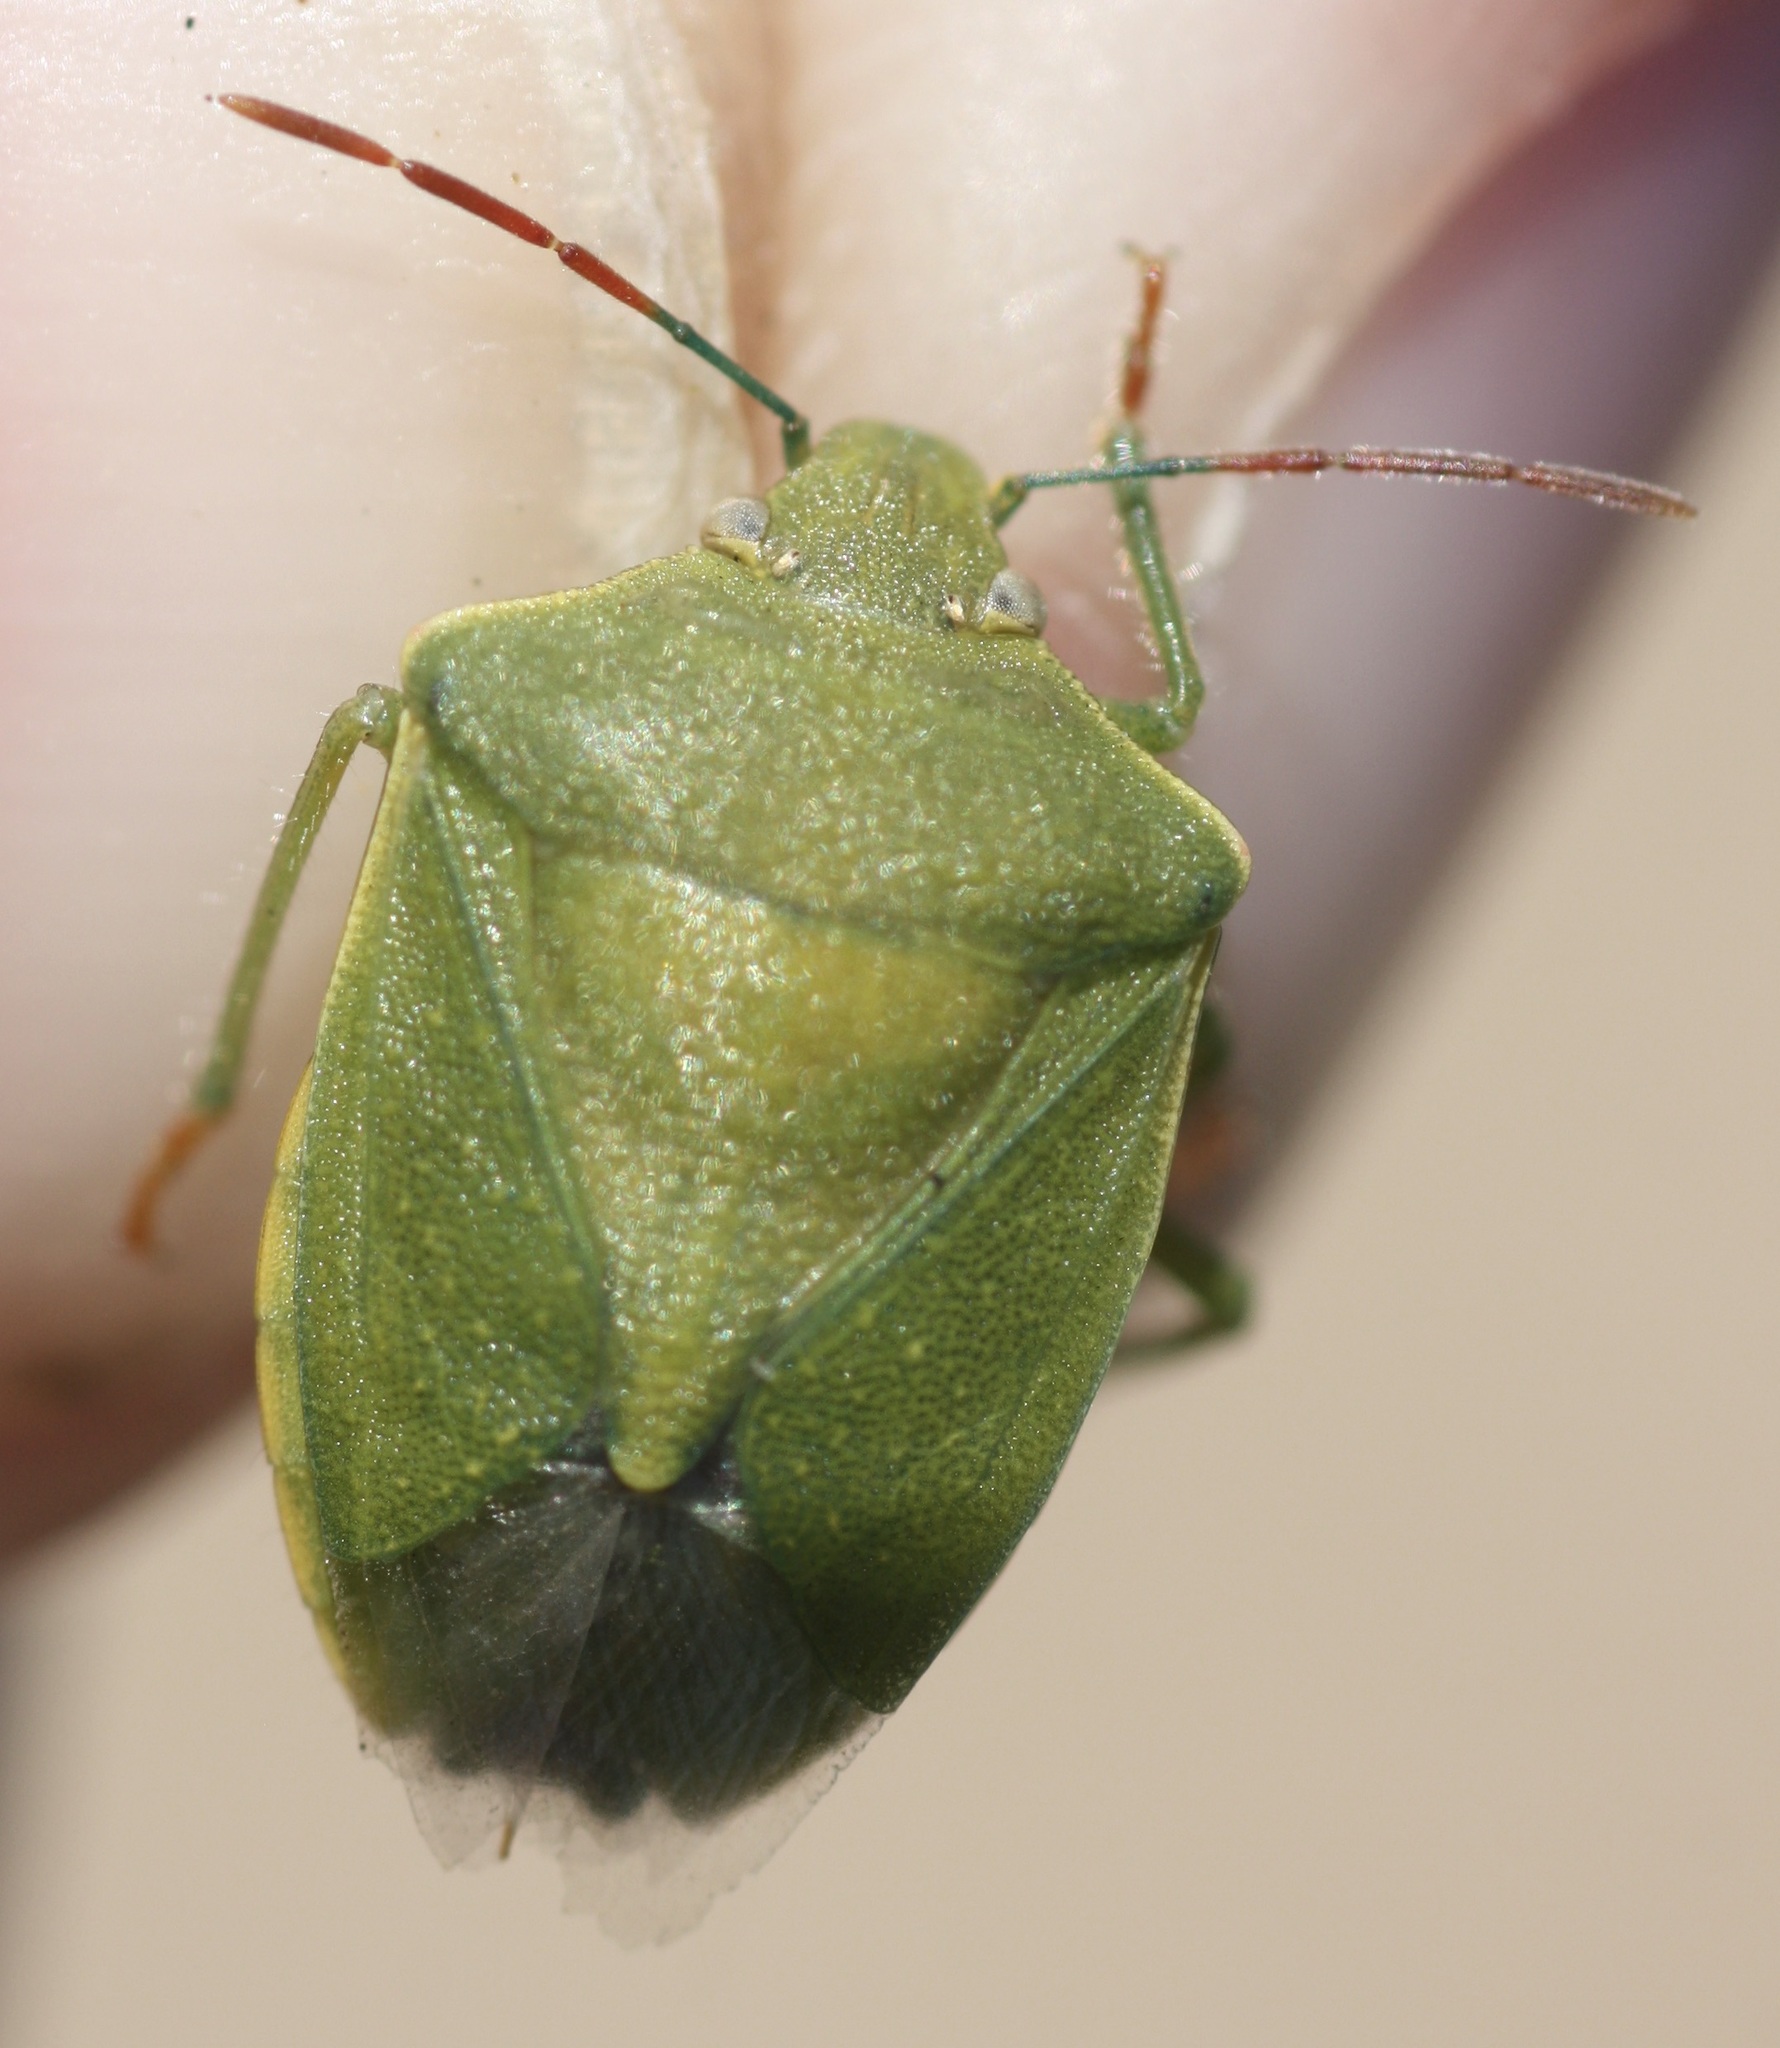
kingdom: Animalia
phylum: Arthropoda
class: Insecta
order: Hemiptera
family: Pentatomidae
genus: Thyanta
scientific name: Thyanta accerra
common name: Stink bug
